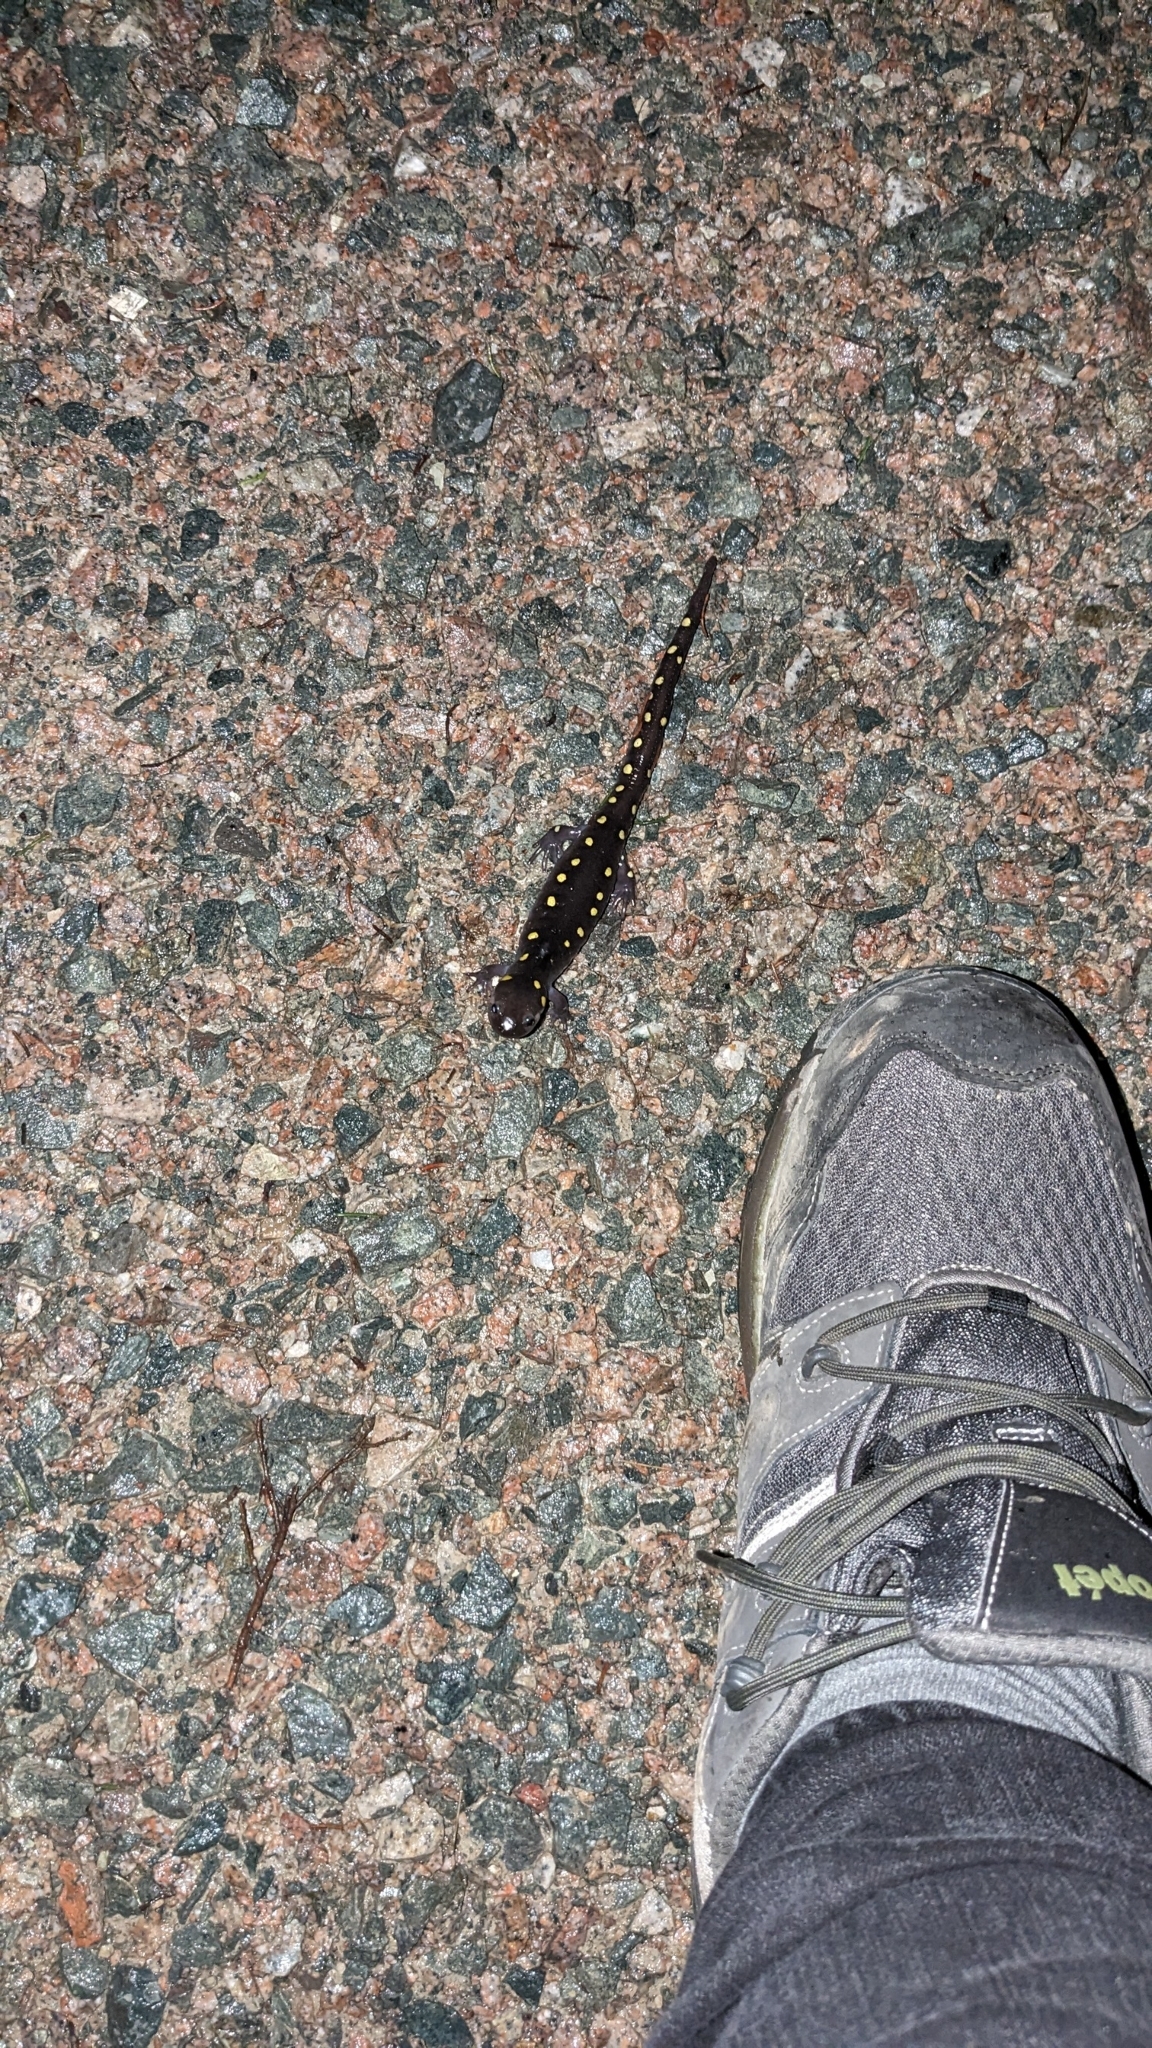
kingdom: Animalia
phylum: Chordata
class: Amphibia
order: Caudata
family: Ambystomatidae
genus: Ambystoma
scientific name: Ambystoma maculatum
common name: Spotted salamander
